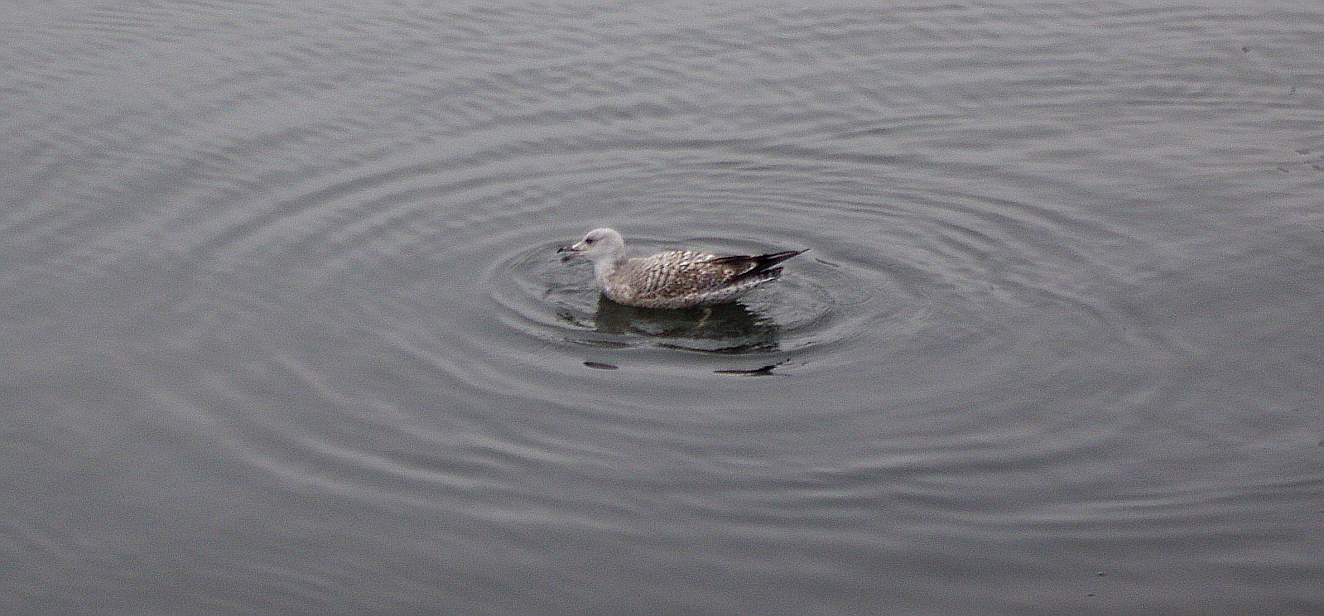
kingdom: Animalia
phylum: Chordata
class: Aves
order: Charadriiformes
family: Laridae
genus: Larus
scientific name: Larus argentatus
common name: Herring gull
